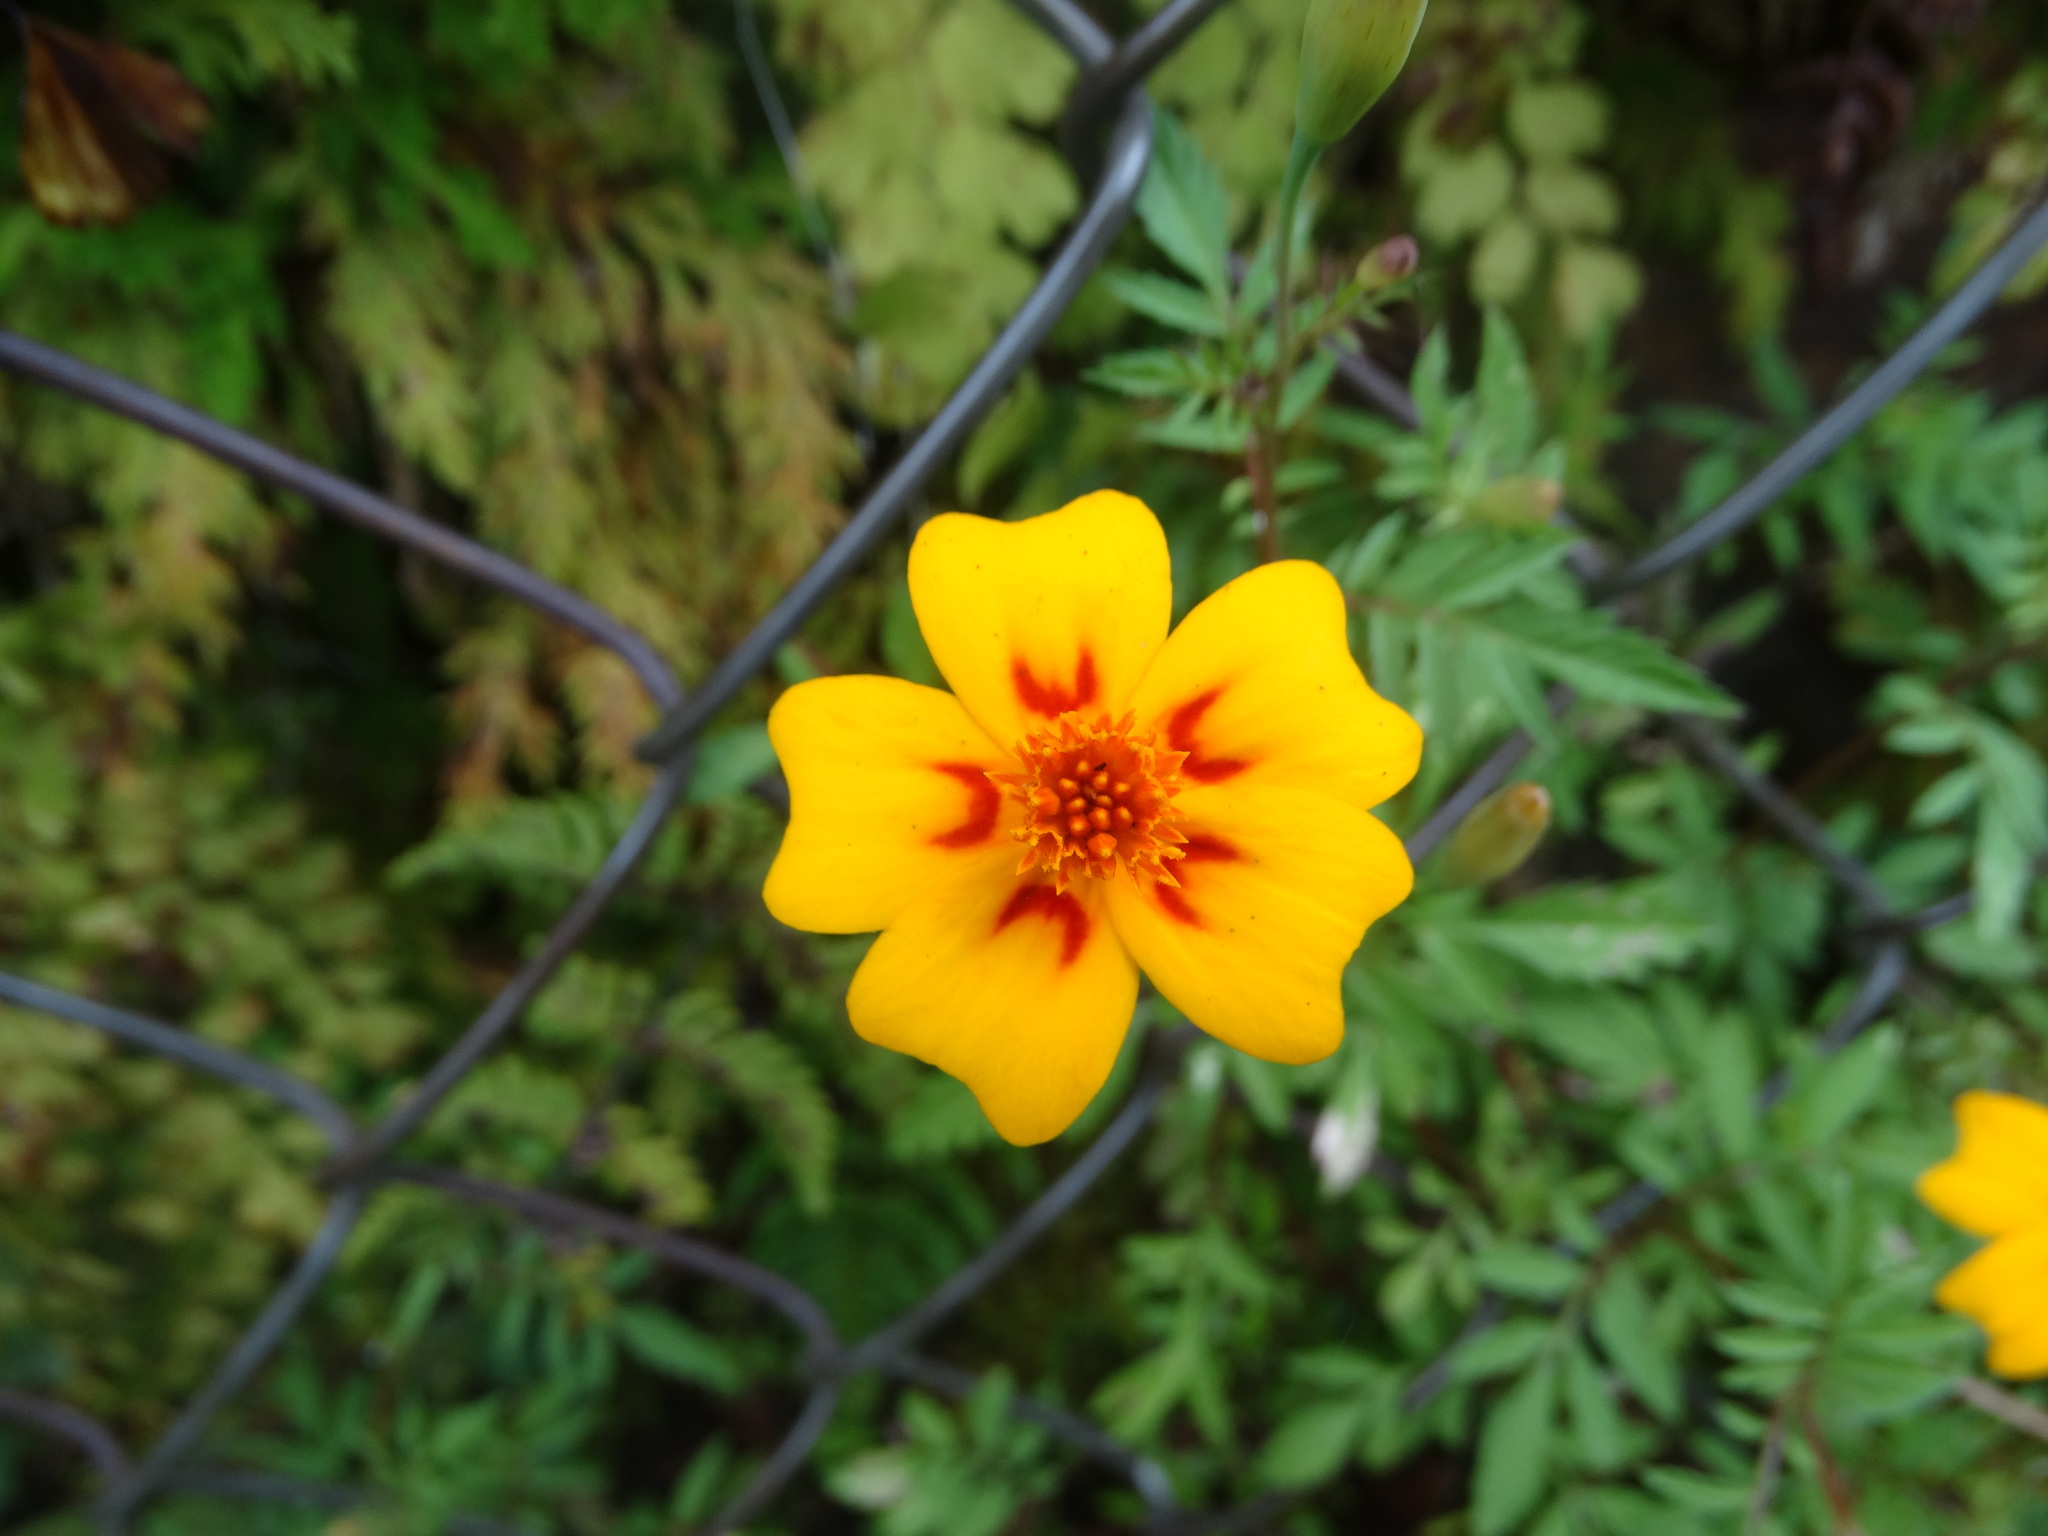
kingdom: Plantae
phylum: Tracheophyta
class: Magnoliopsida
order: Asterales
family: Asteraceae
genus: Tagetes
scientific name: Tagetes lunulata
